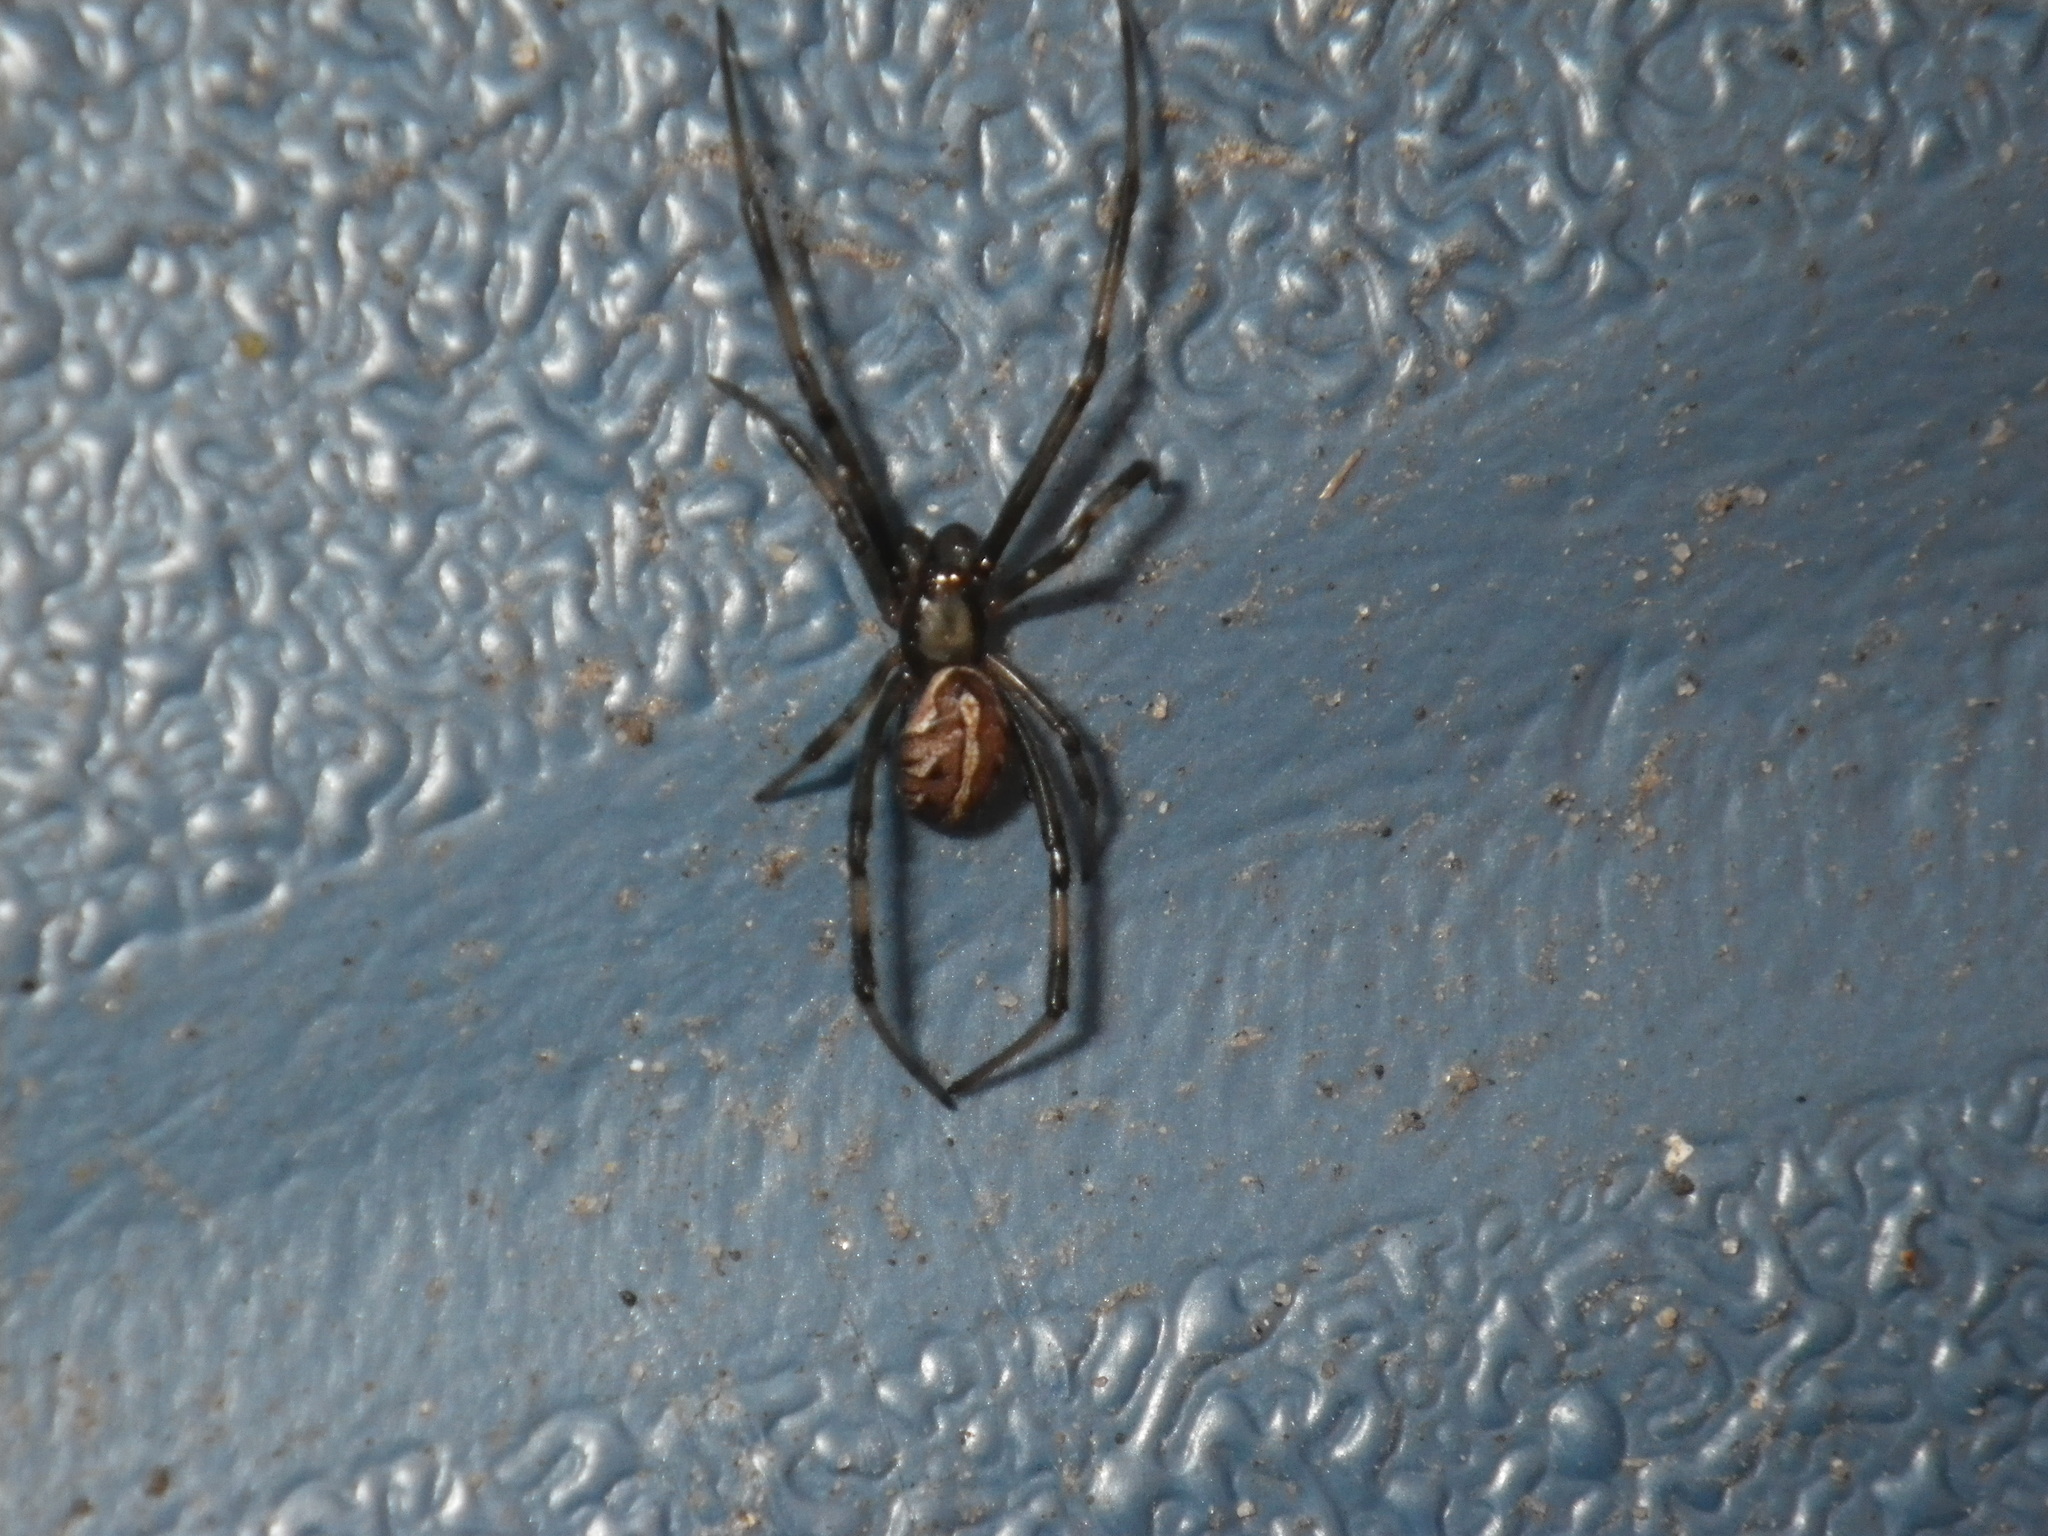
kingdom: Animalia
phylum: Arthropoda
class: Arachnida
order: Araneae
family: Theridiidae
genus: Latrodectus
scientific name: Latrodectus hesperus
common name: Western black widow
